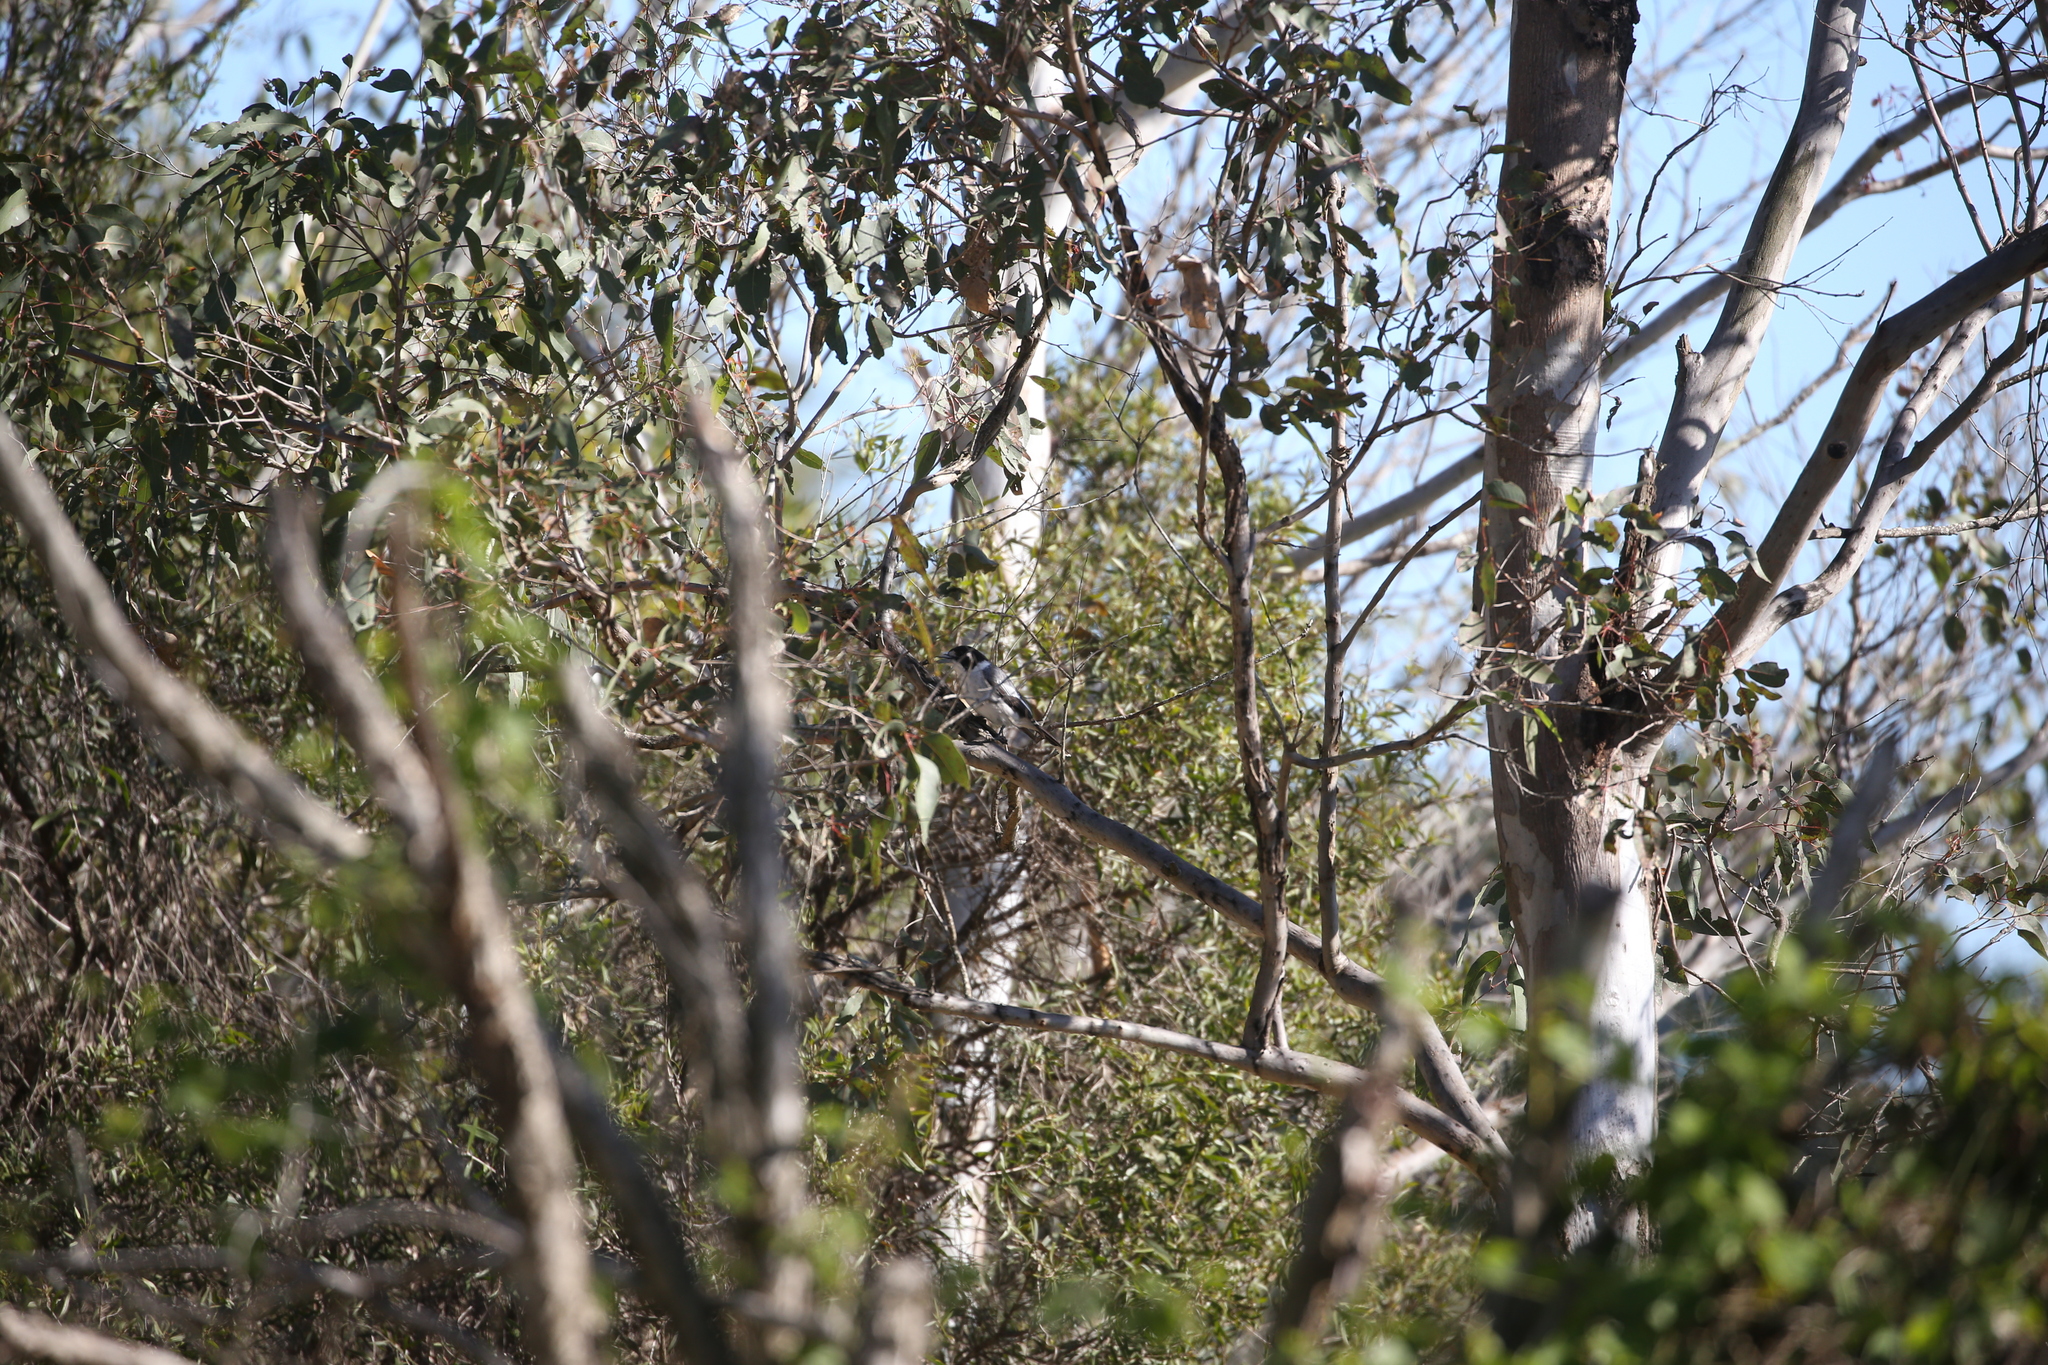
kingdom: Animalia
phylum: Chordata
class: Aves
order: Passeriformes
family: Cracticidae
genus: Cracticus
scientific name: Cracticus torquatus
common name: Grey butcherbird
